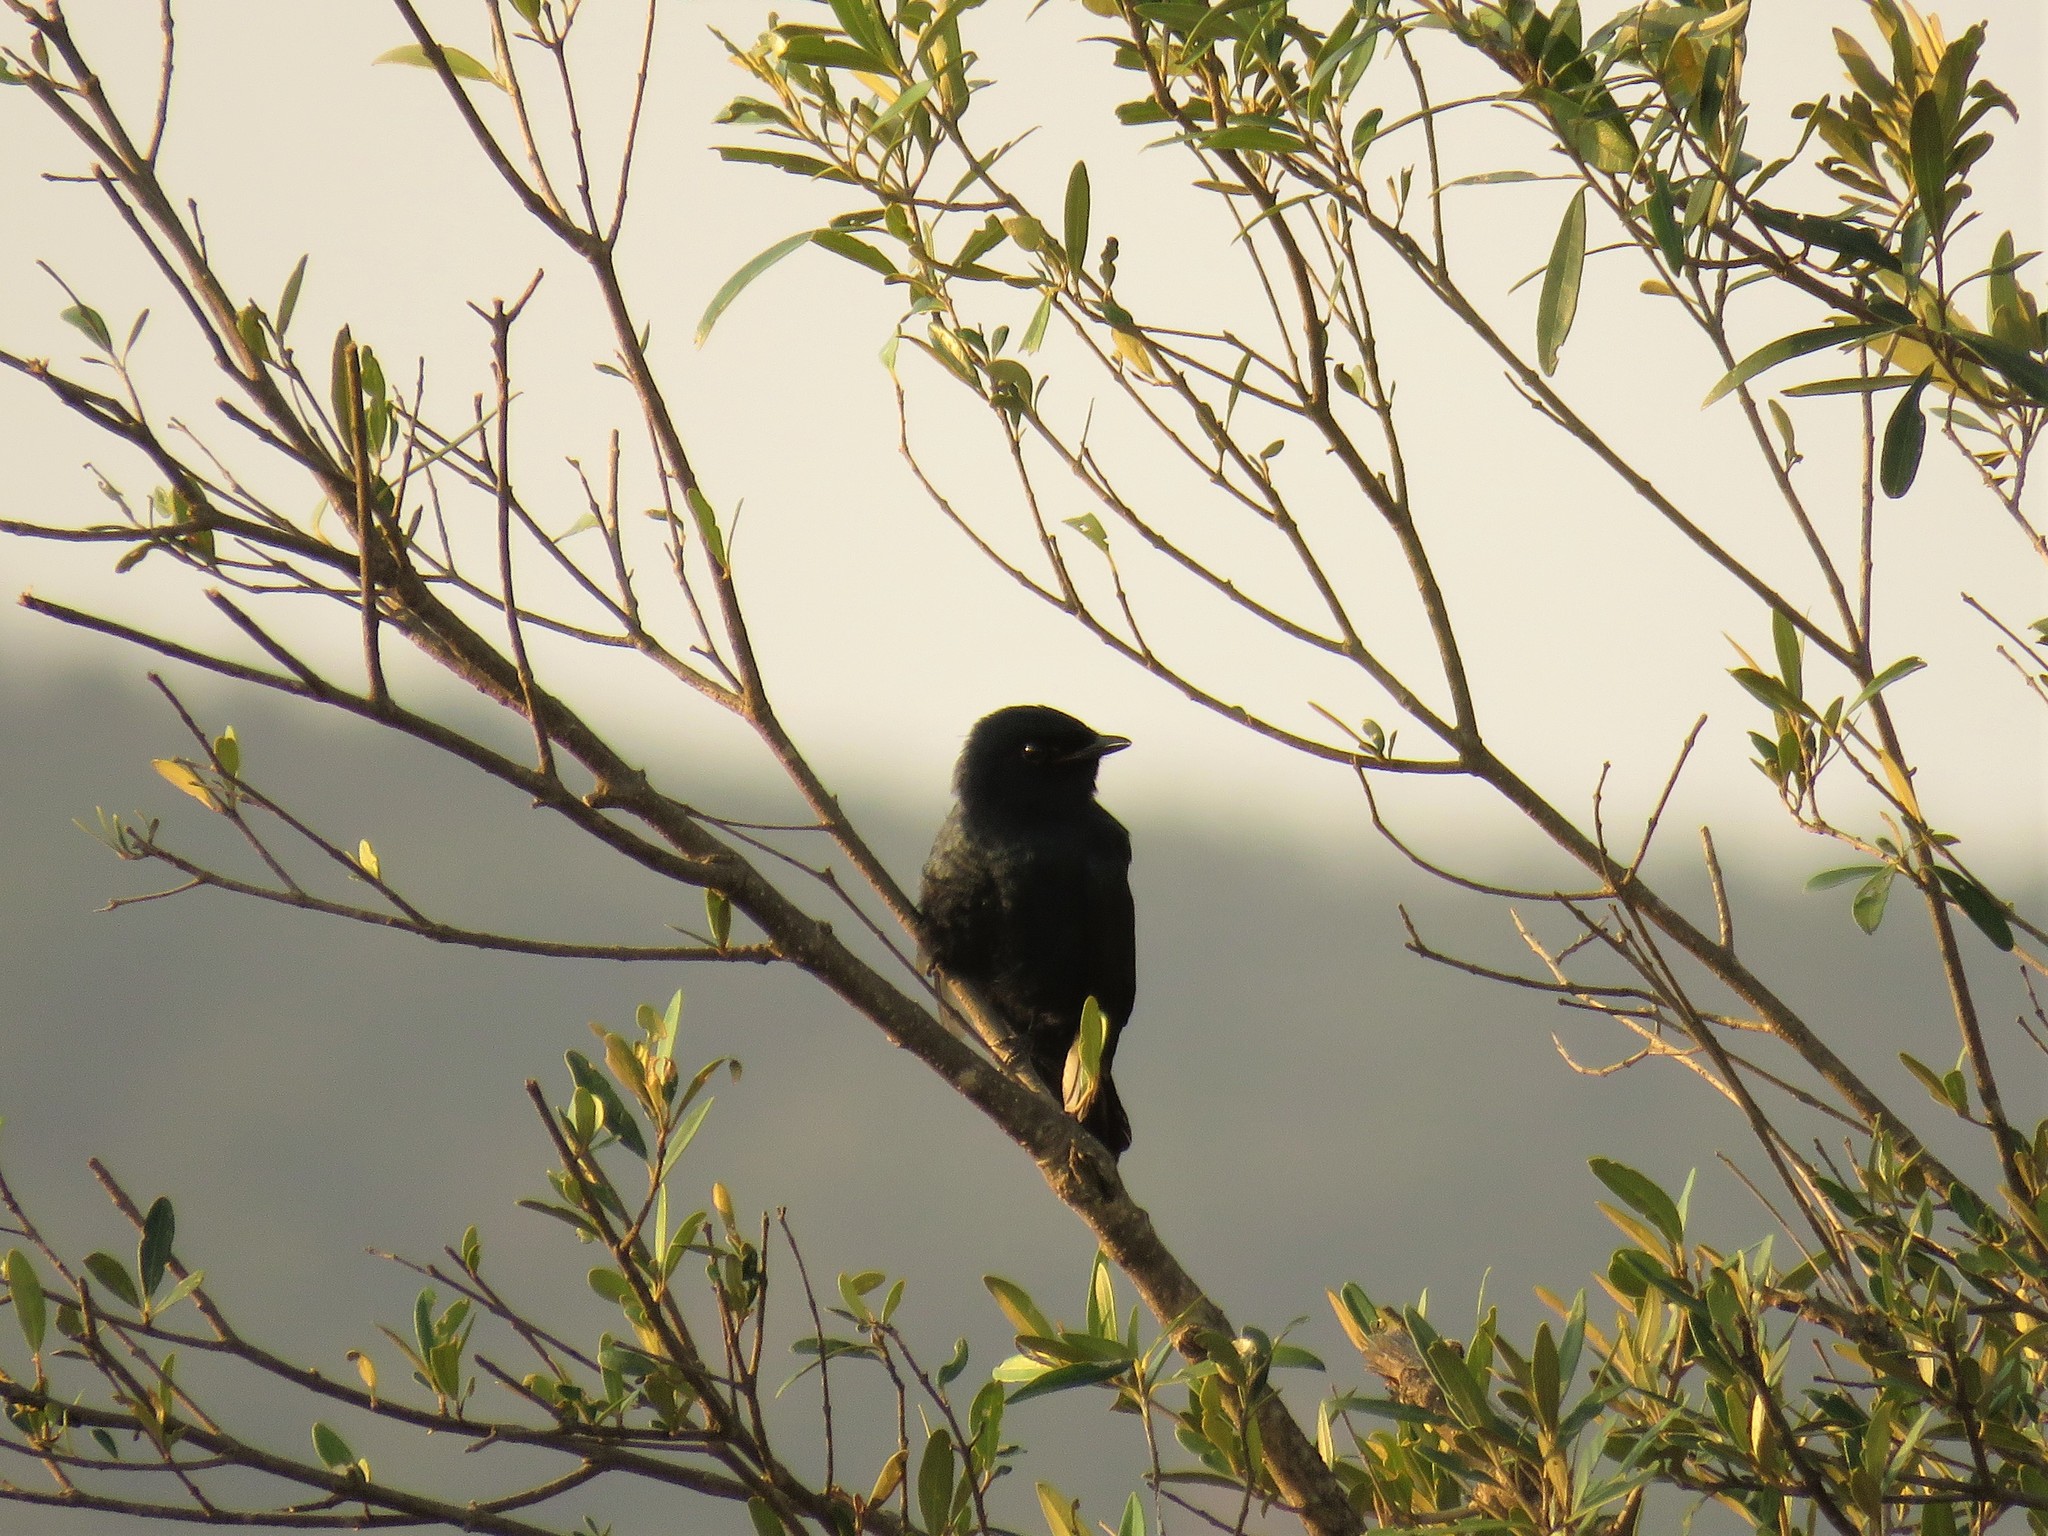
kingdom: Animalia
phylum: Chordata
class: Aves
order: Passeriformes
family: Campephagidae
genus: Campephaga
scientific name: Campephaga flava
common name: Black cuckooshrike
